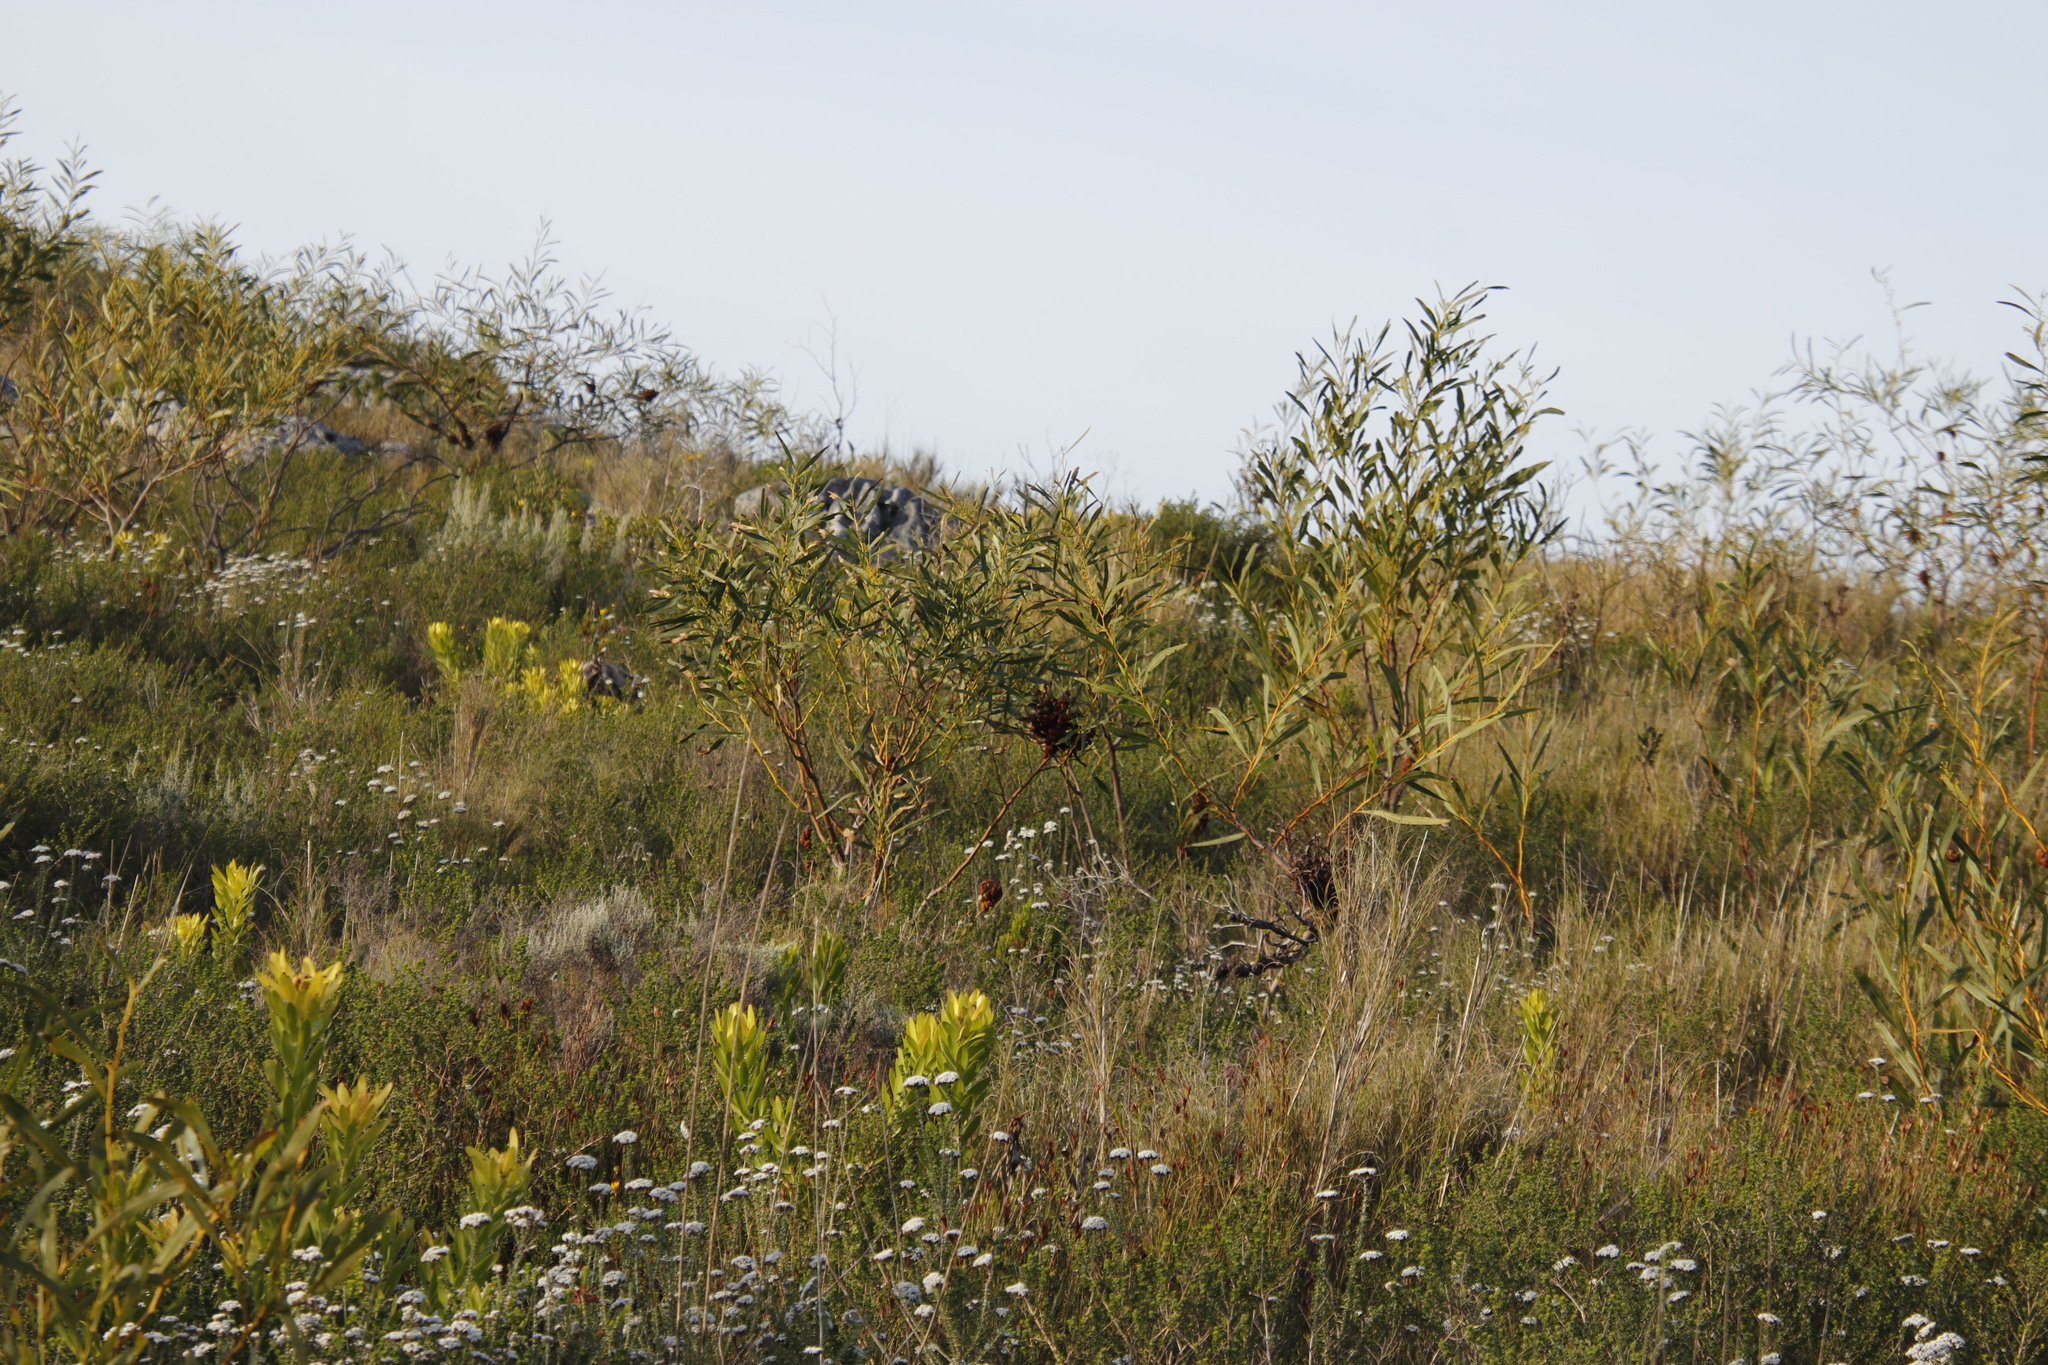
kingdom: Plantae
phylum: Tracheophyta
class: Magnoliopsida
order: Fabales
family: Fabaceae
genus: Acacia
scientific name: Acacia saligna
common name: Orange wattle
